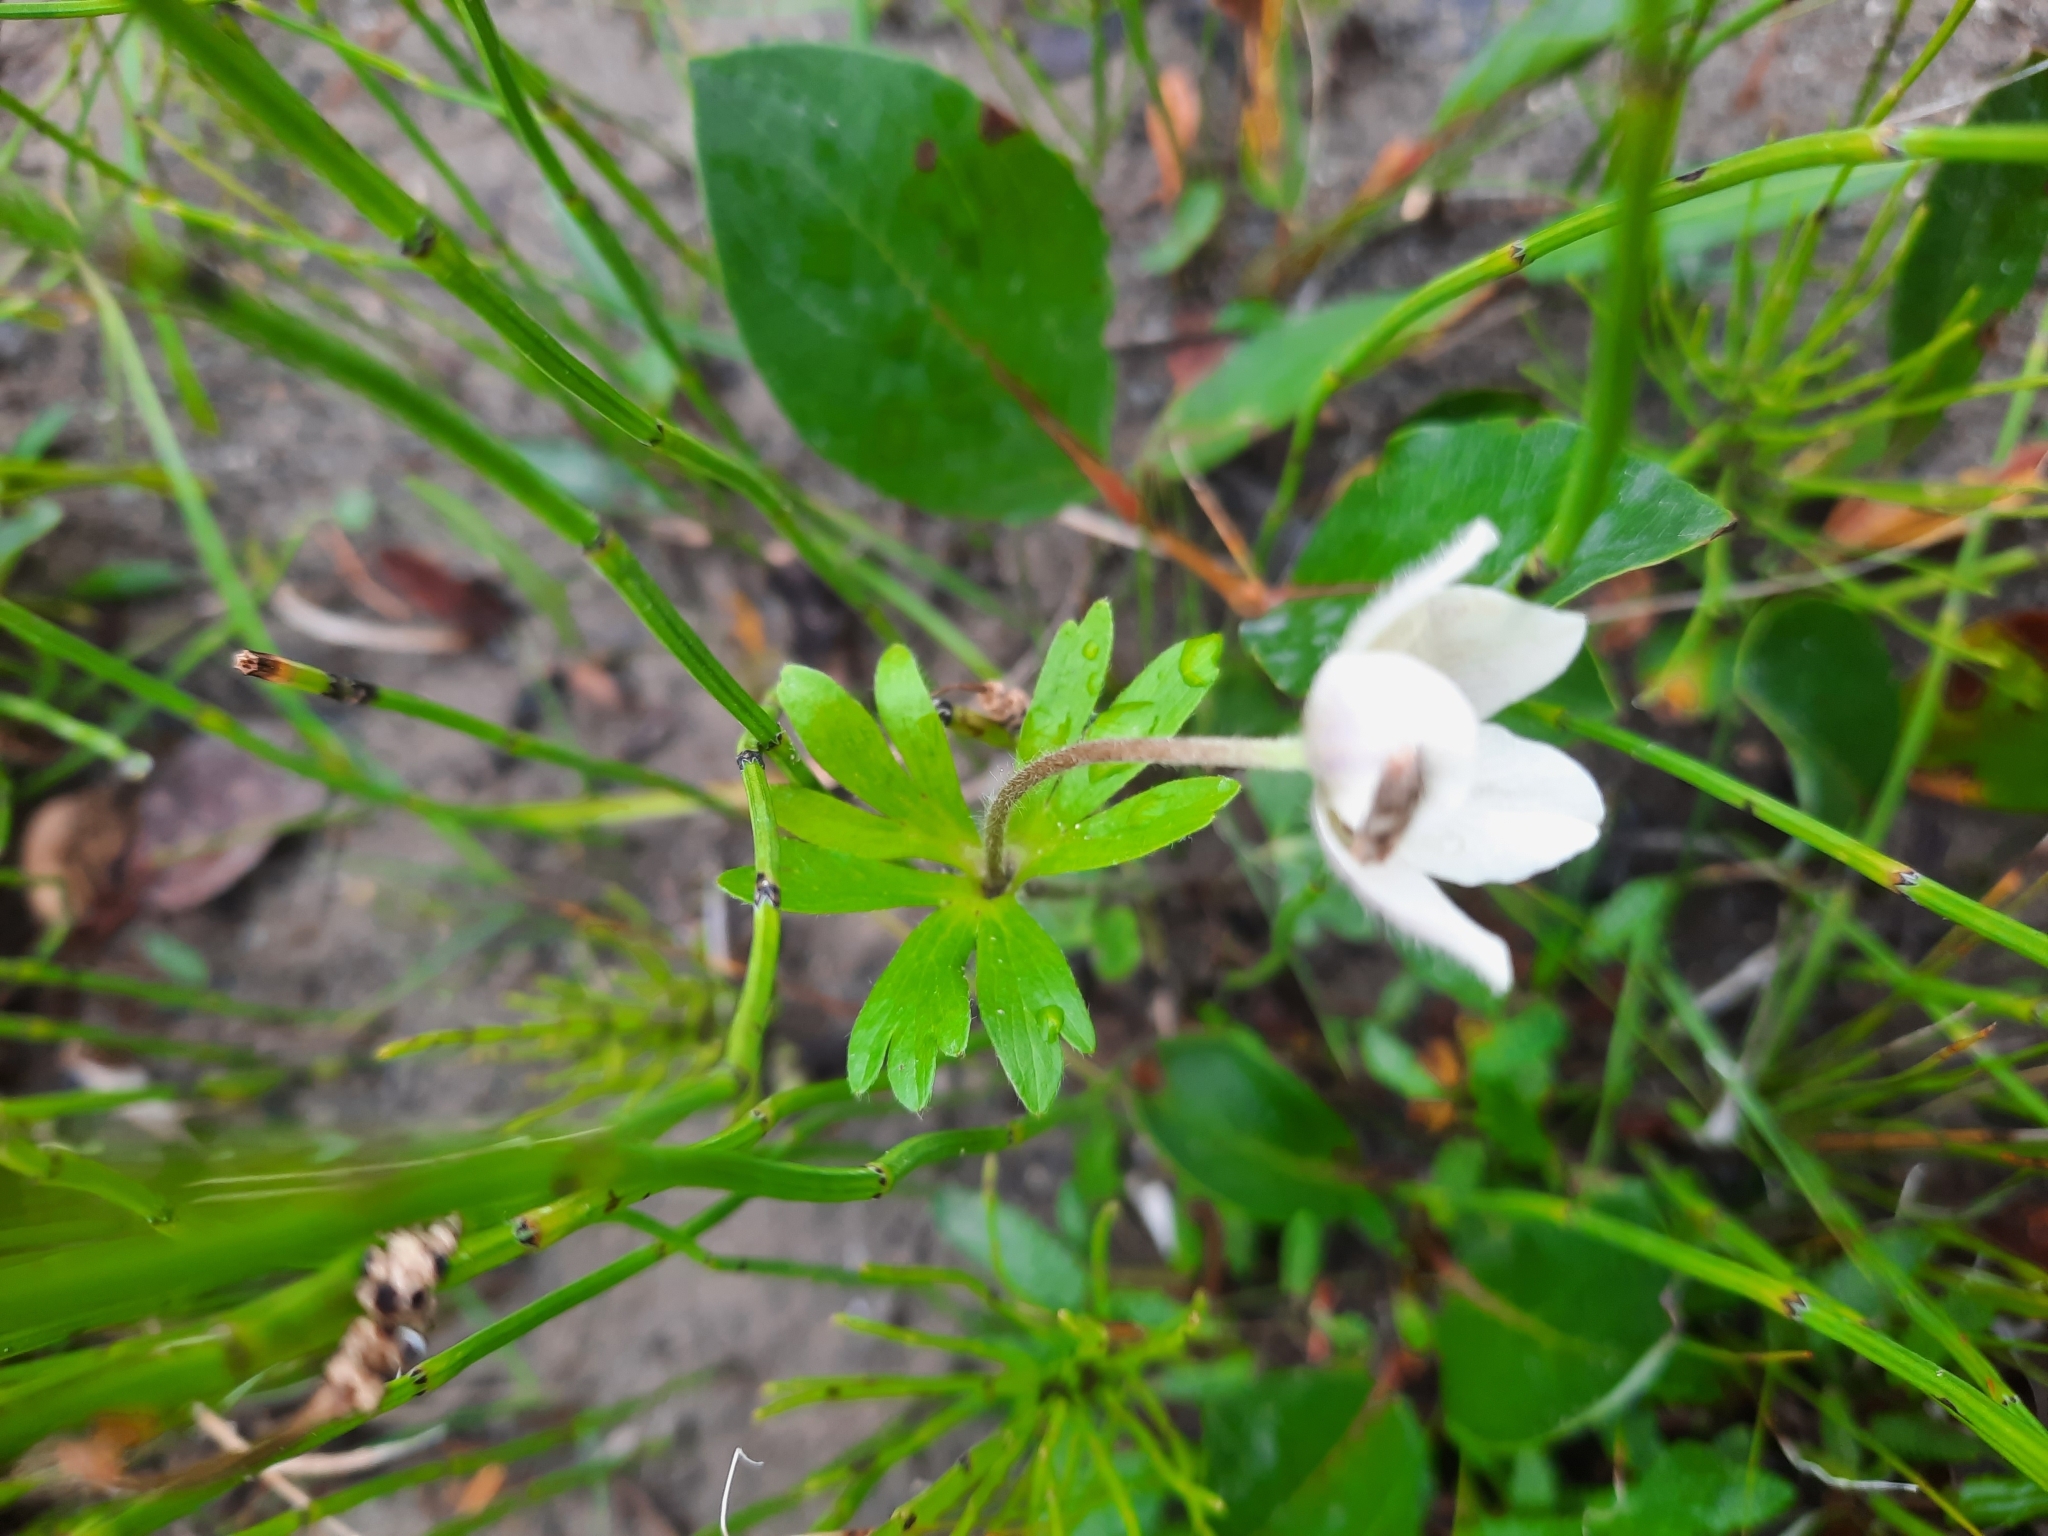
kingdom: Plantae
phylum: Tracheophyta
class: Magnoliopsida
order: Ranunculales
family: Ranunculaceae
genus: Anemone
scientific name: Anemone parviflora
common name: Northern anemone
